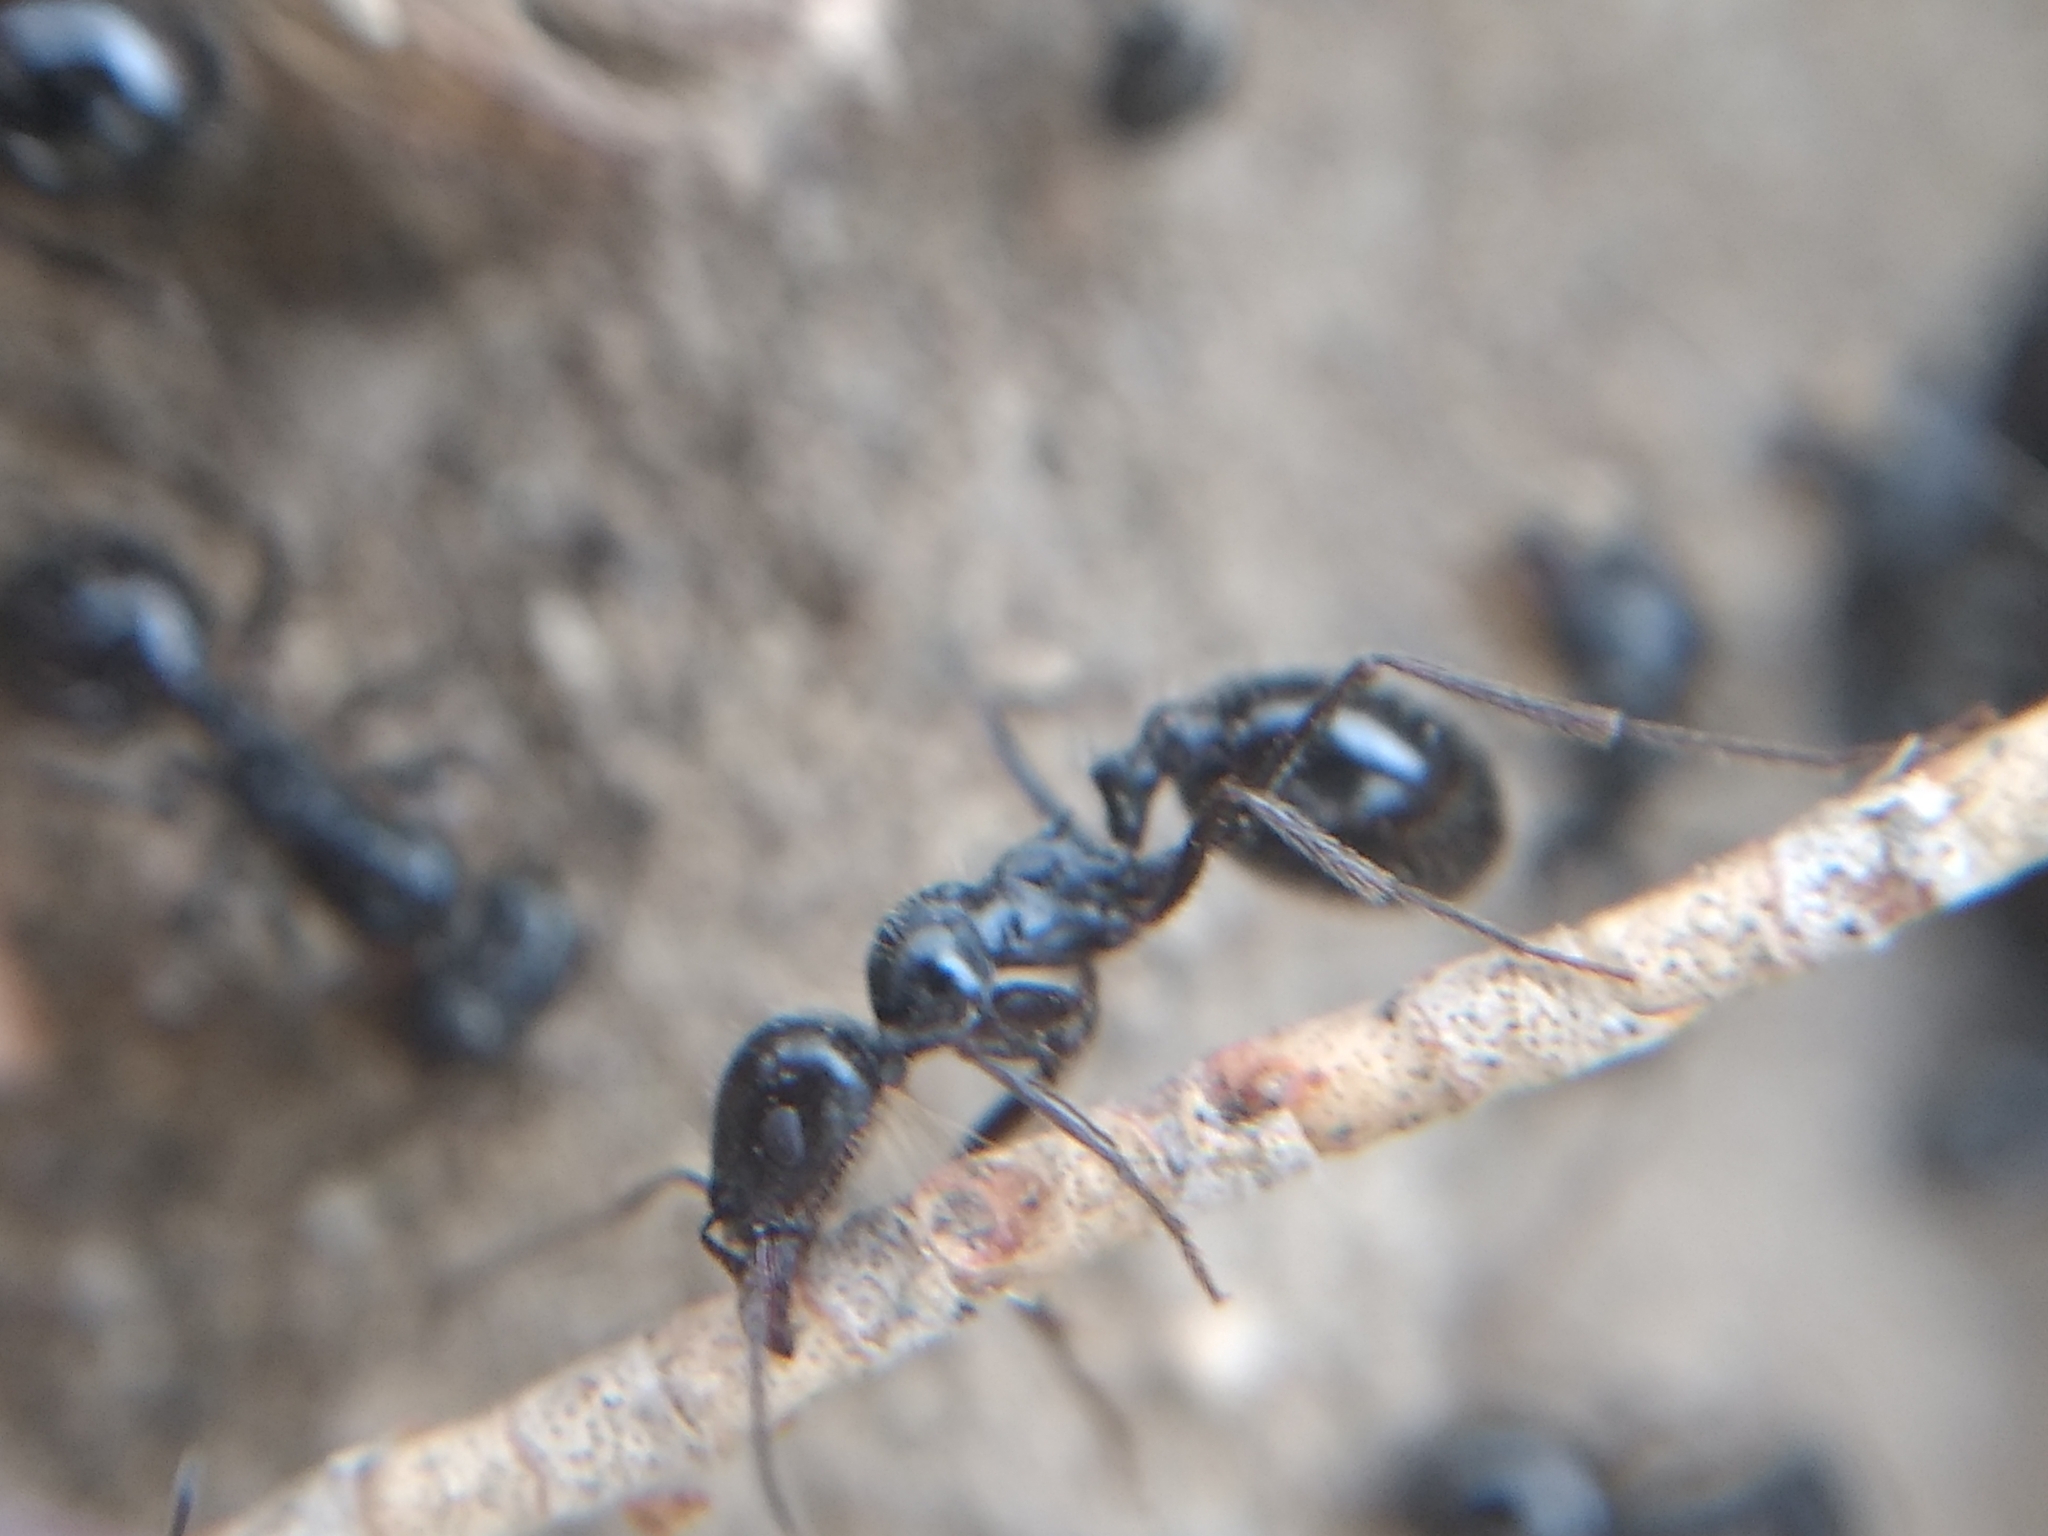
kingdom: Animalia
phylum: Arthropoda
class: Insecta
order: Hymenoptera
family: Formicidae
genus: Messor
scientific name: Messor pergandei
